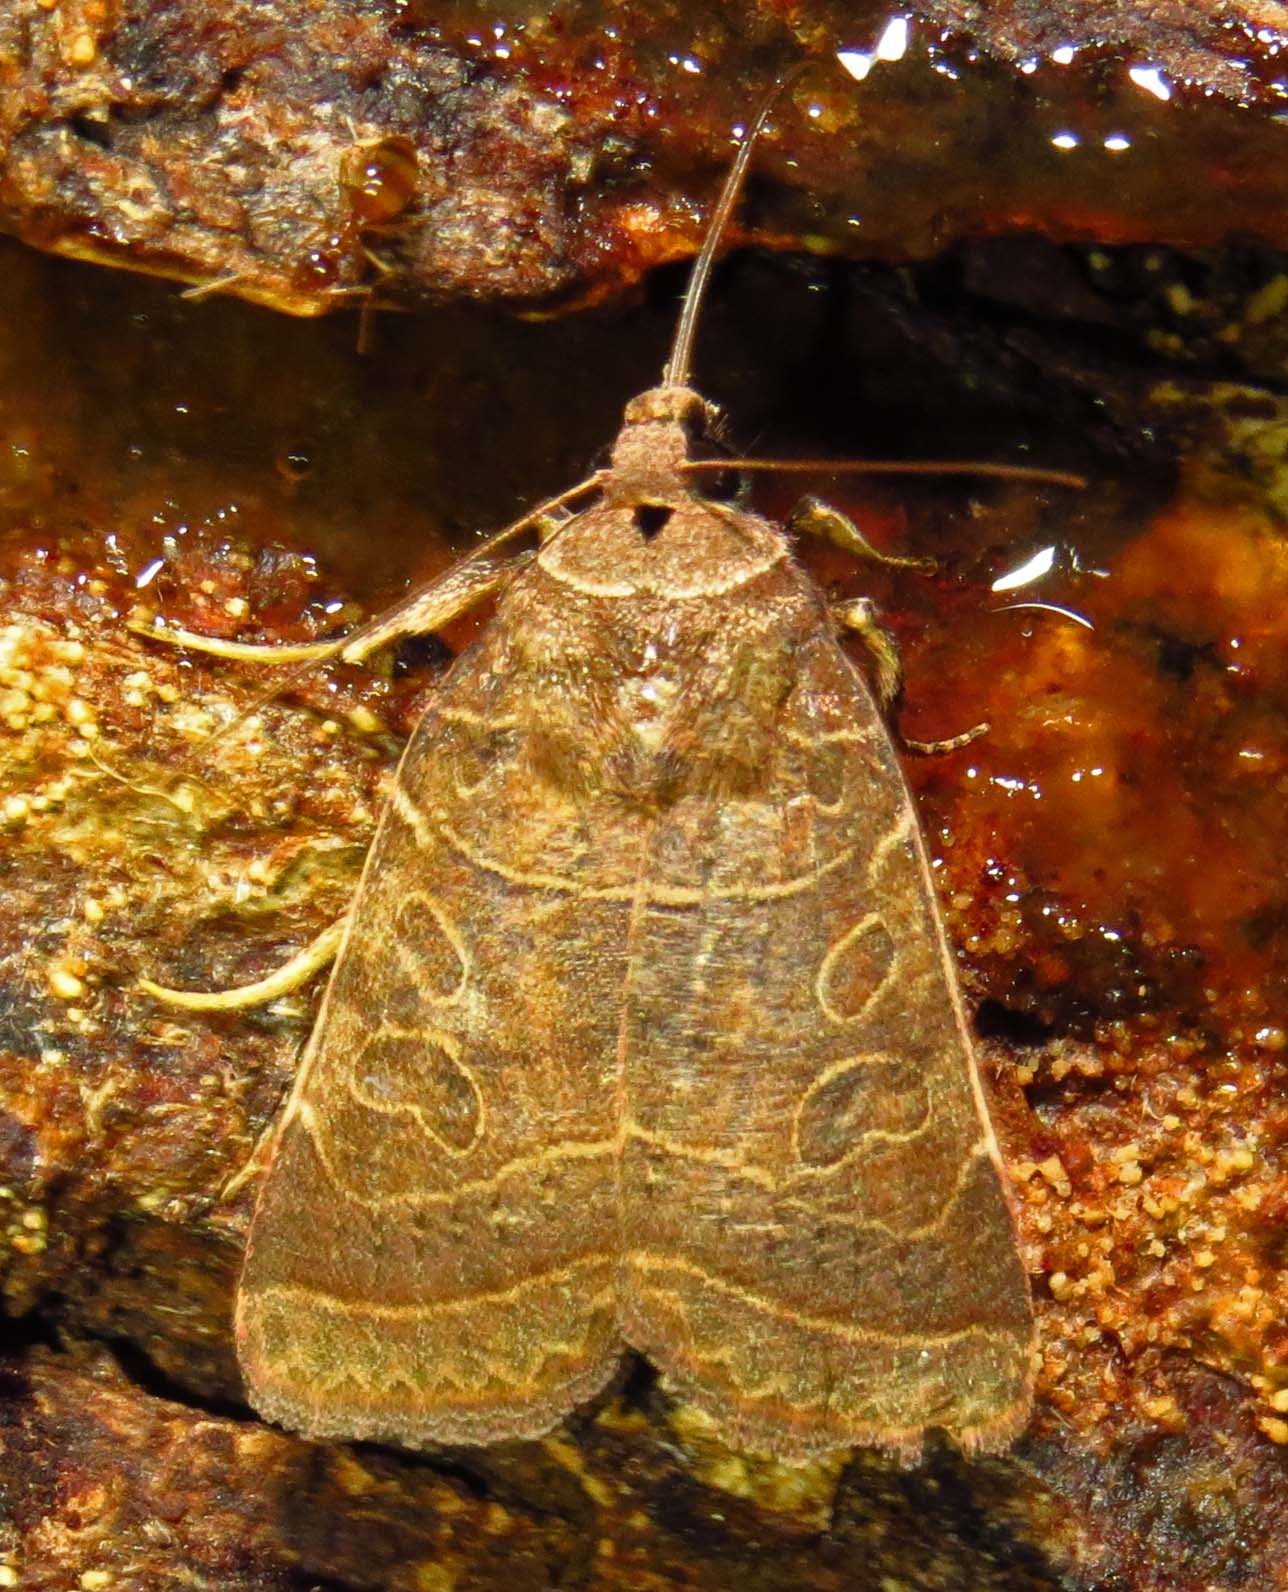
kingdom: Animalia
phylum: Arthropoda
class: Insecta
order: Lepidoptera
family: Noctuidae
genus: Orthodes
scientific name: Orthodes majuscula
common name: Rustic quaker
